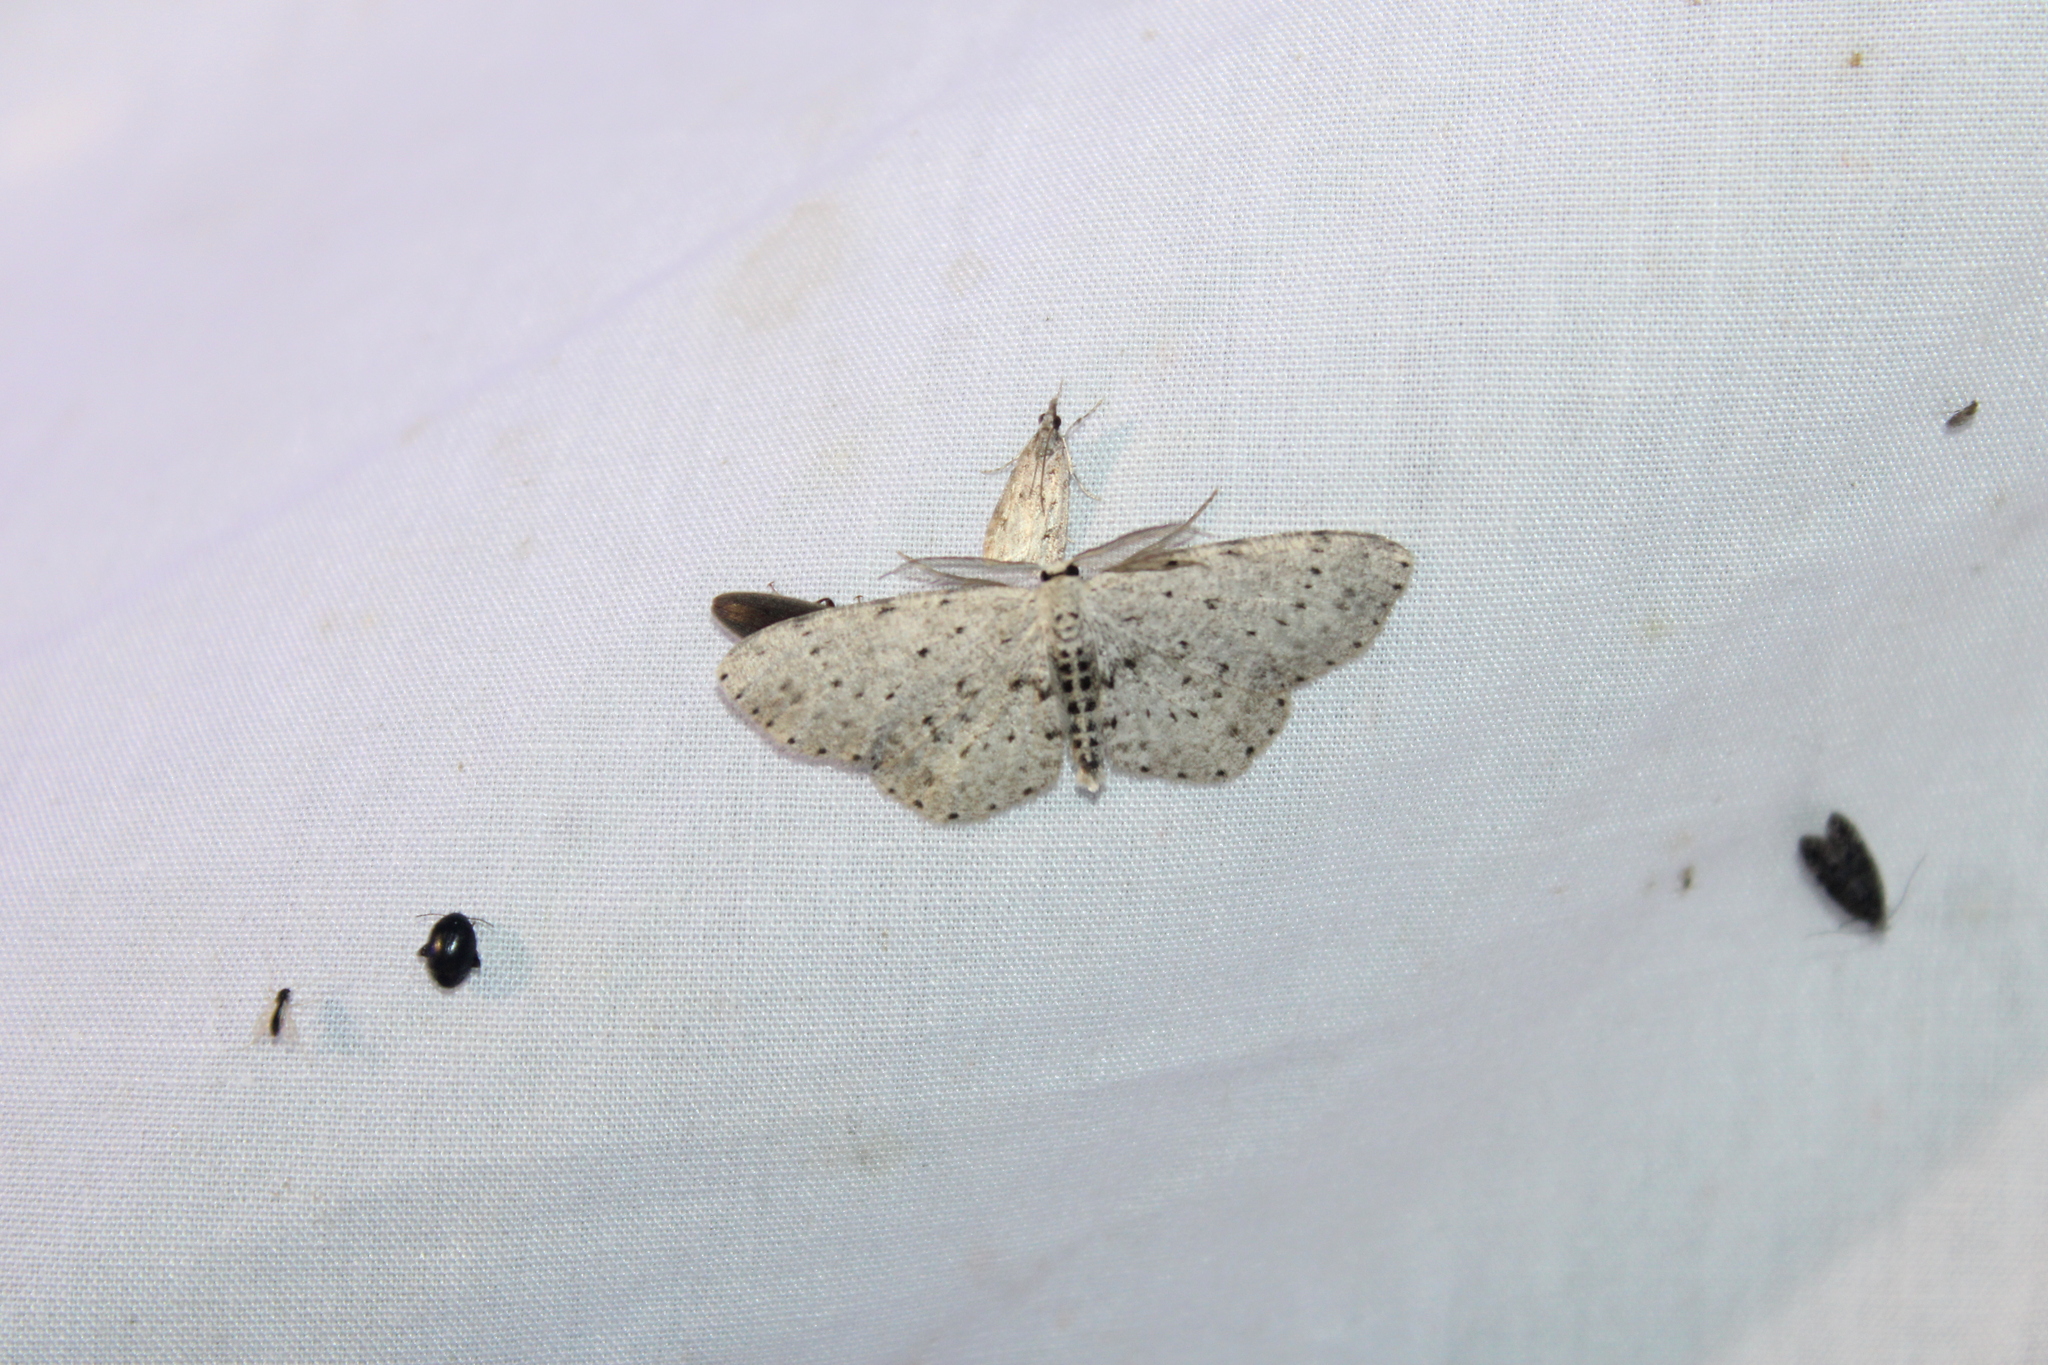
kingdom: Animalia
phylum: Arthropoda
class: Insecta
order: Lepidoptera
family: Geometridae
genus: Glena
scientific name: Glena cribrataria
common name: Dotted gray
